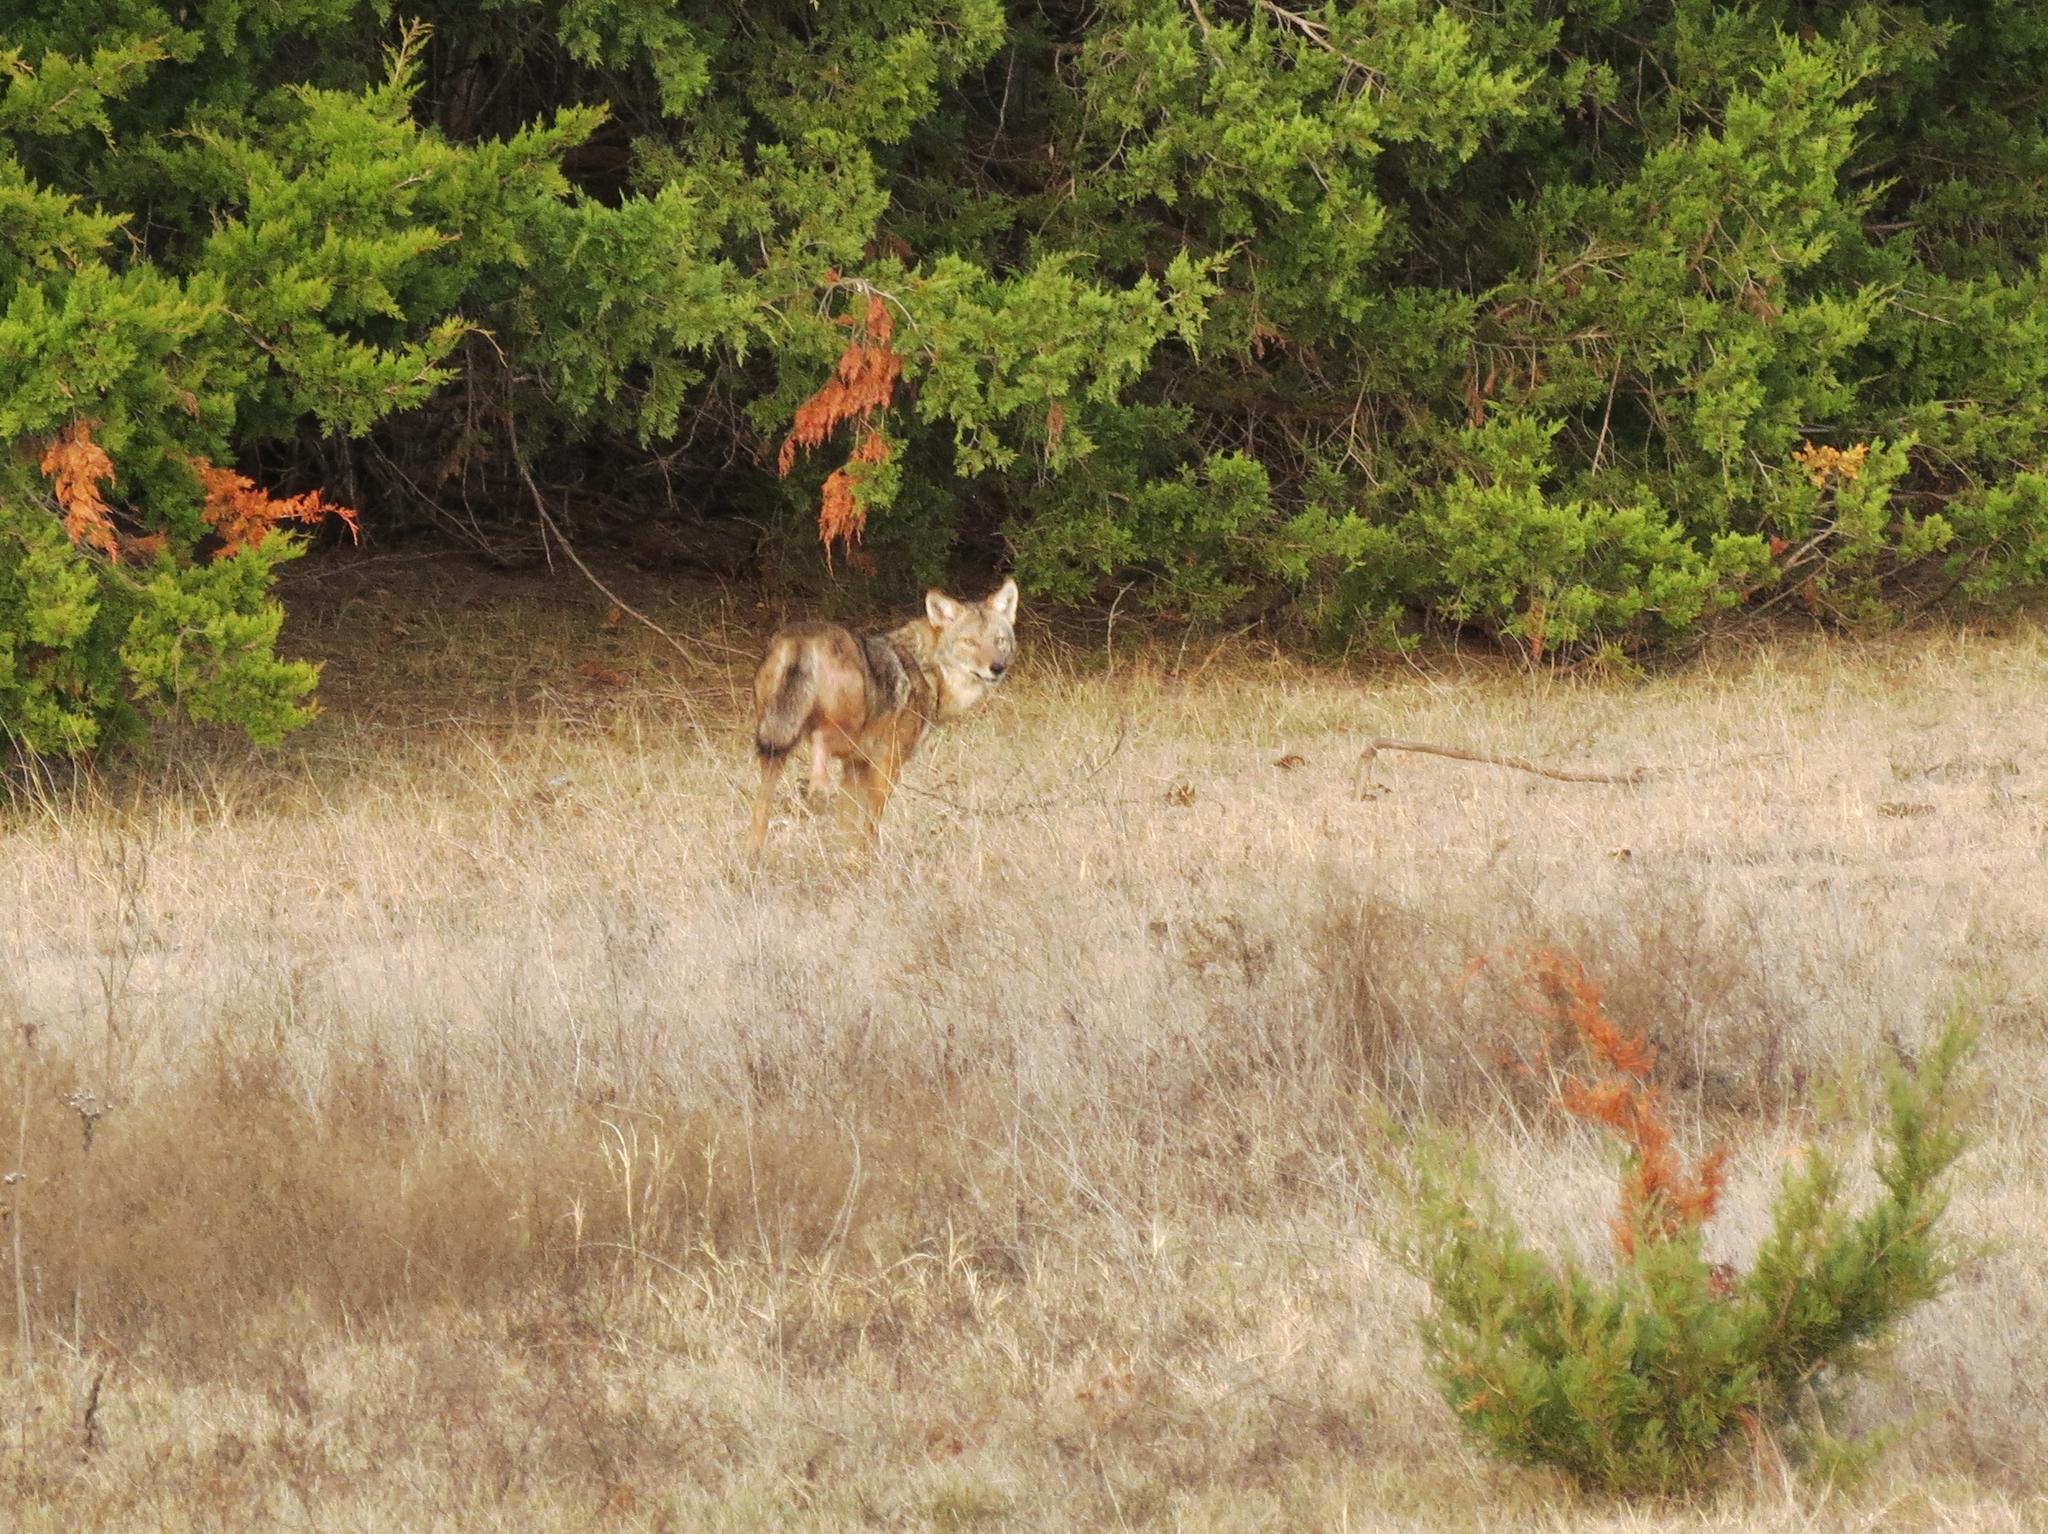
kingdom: Animalia
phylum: Chordata
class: Mammalia
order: Carnivora
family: Canidae
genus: Canis
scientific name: Canis latrans
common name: Coyote
